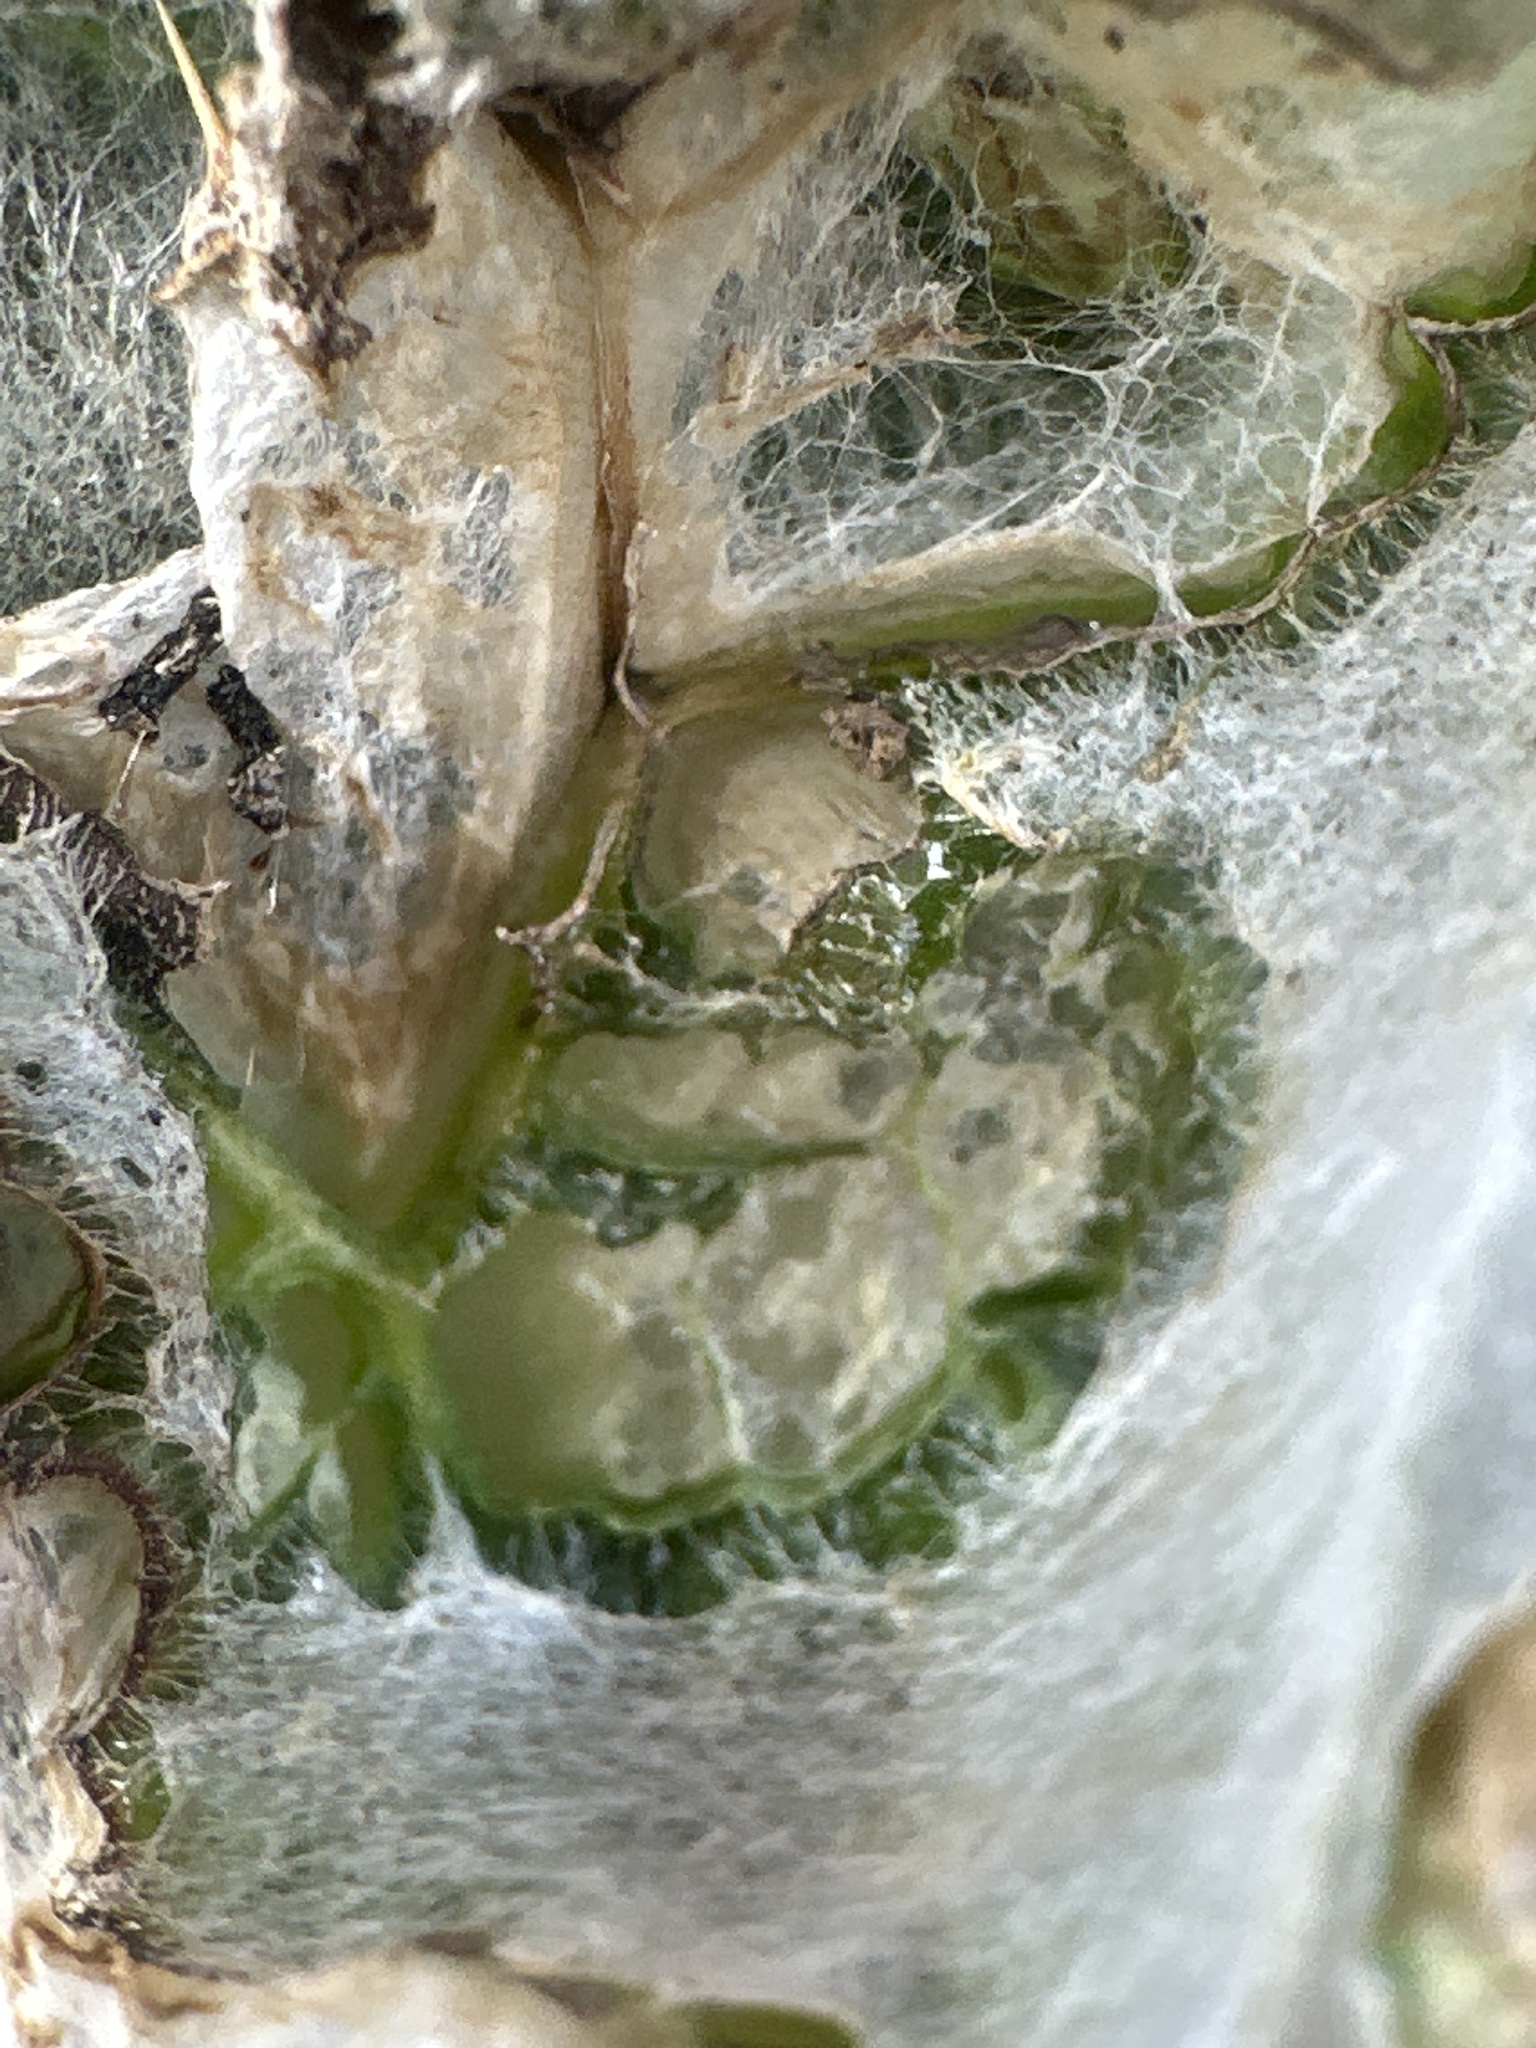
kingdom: Plantae
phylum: Tracheophyta
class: Magnoliopsida
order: Asterales
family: Asteraceae
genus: Onopordum
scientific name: Onopordum acanthium
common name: Scotch thistle
